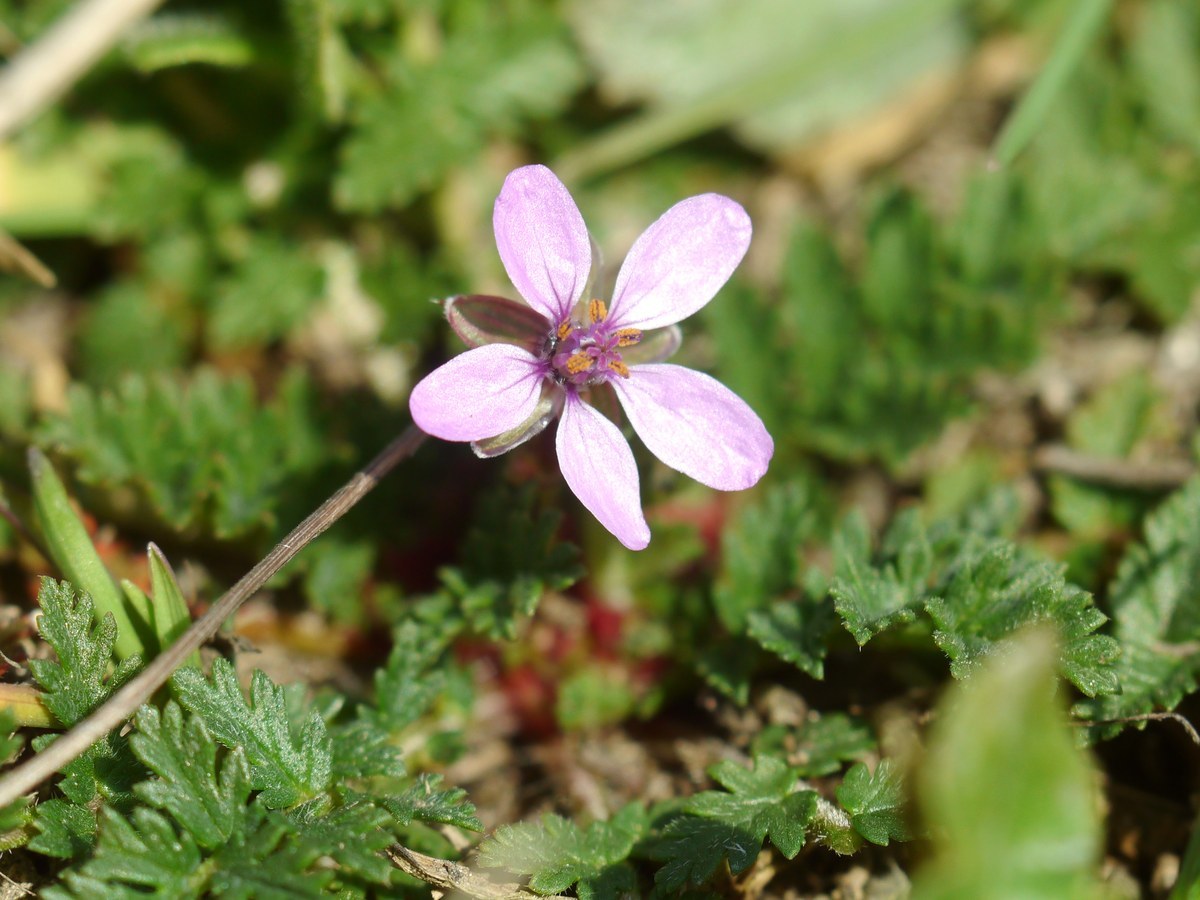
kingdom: Plantae
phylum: Tracheophyta
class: Magnoliopsida
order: Geraniales
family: Geraniaceae
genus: Erodium
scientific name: Erodium cicutarium
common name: Common stork's-bill
